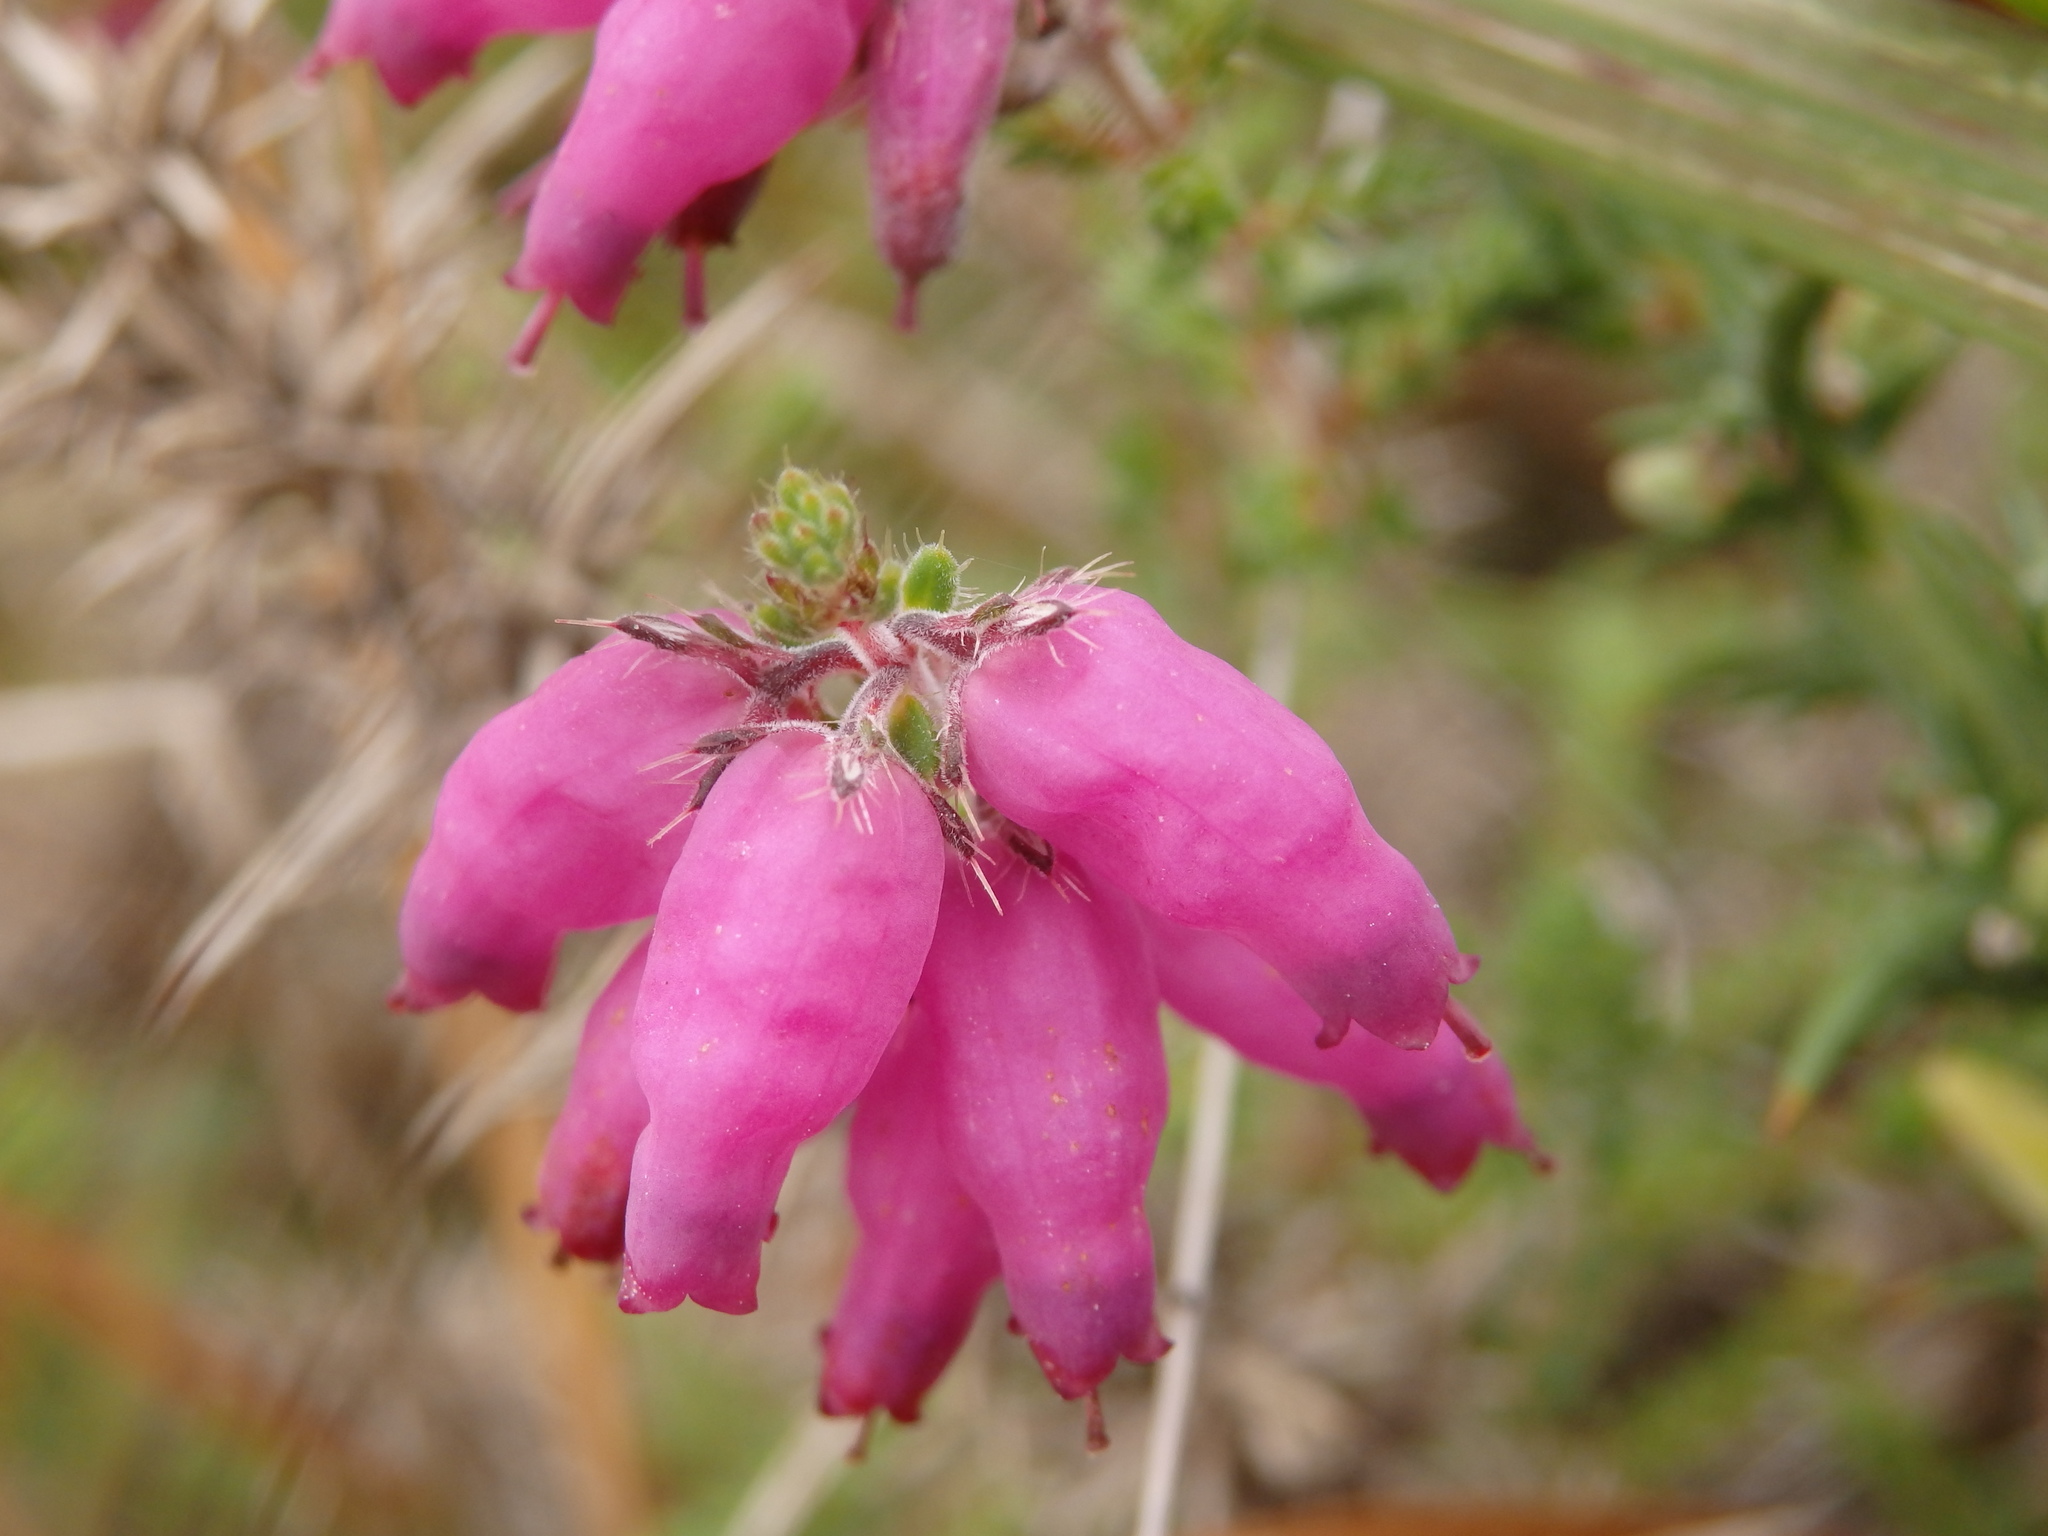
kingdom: Plantae
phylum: Tracheophyta
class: Magnoliopsida
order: Ericales
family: Ericaceae
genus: Erica
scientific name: Erica ciliaris
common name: Dorset heath
